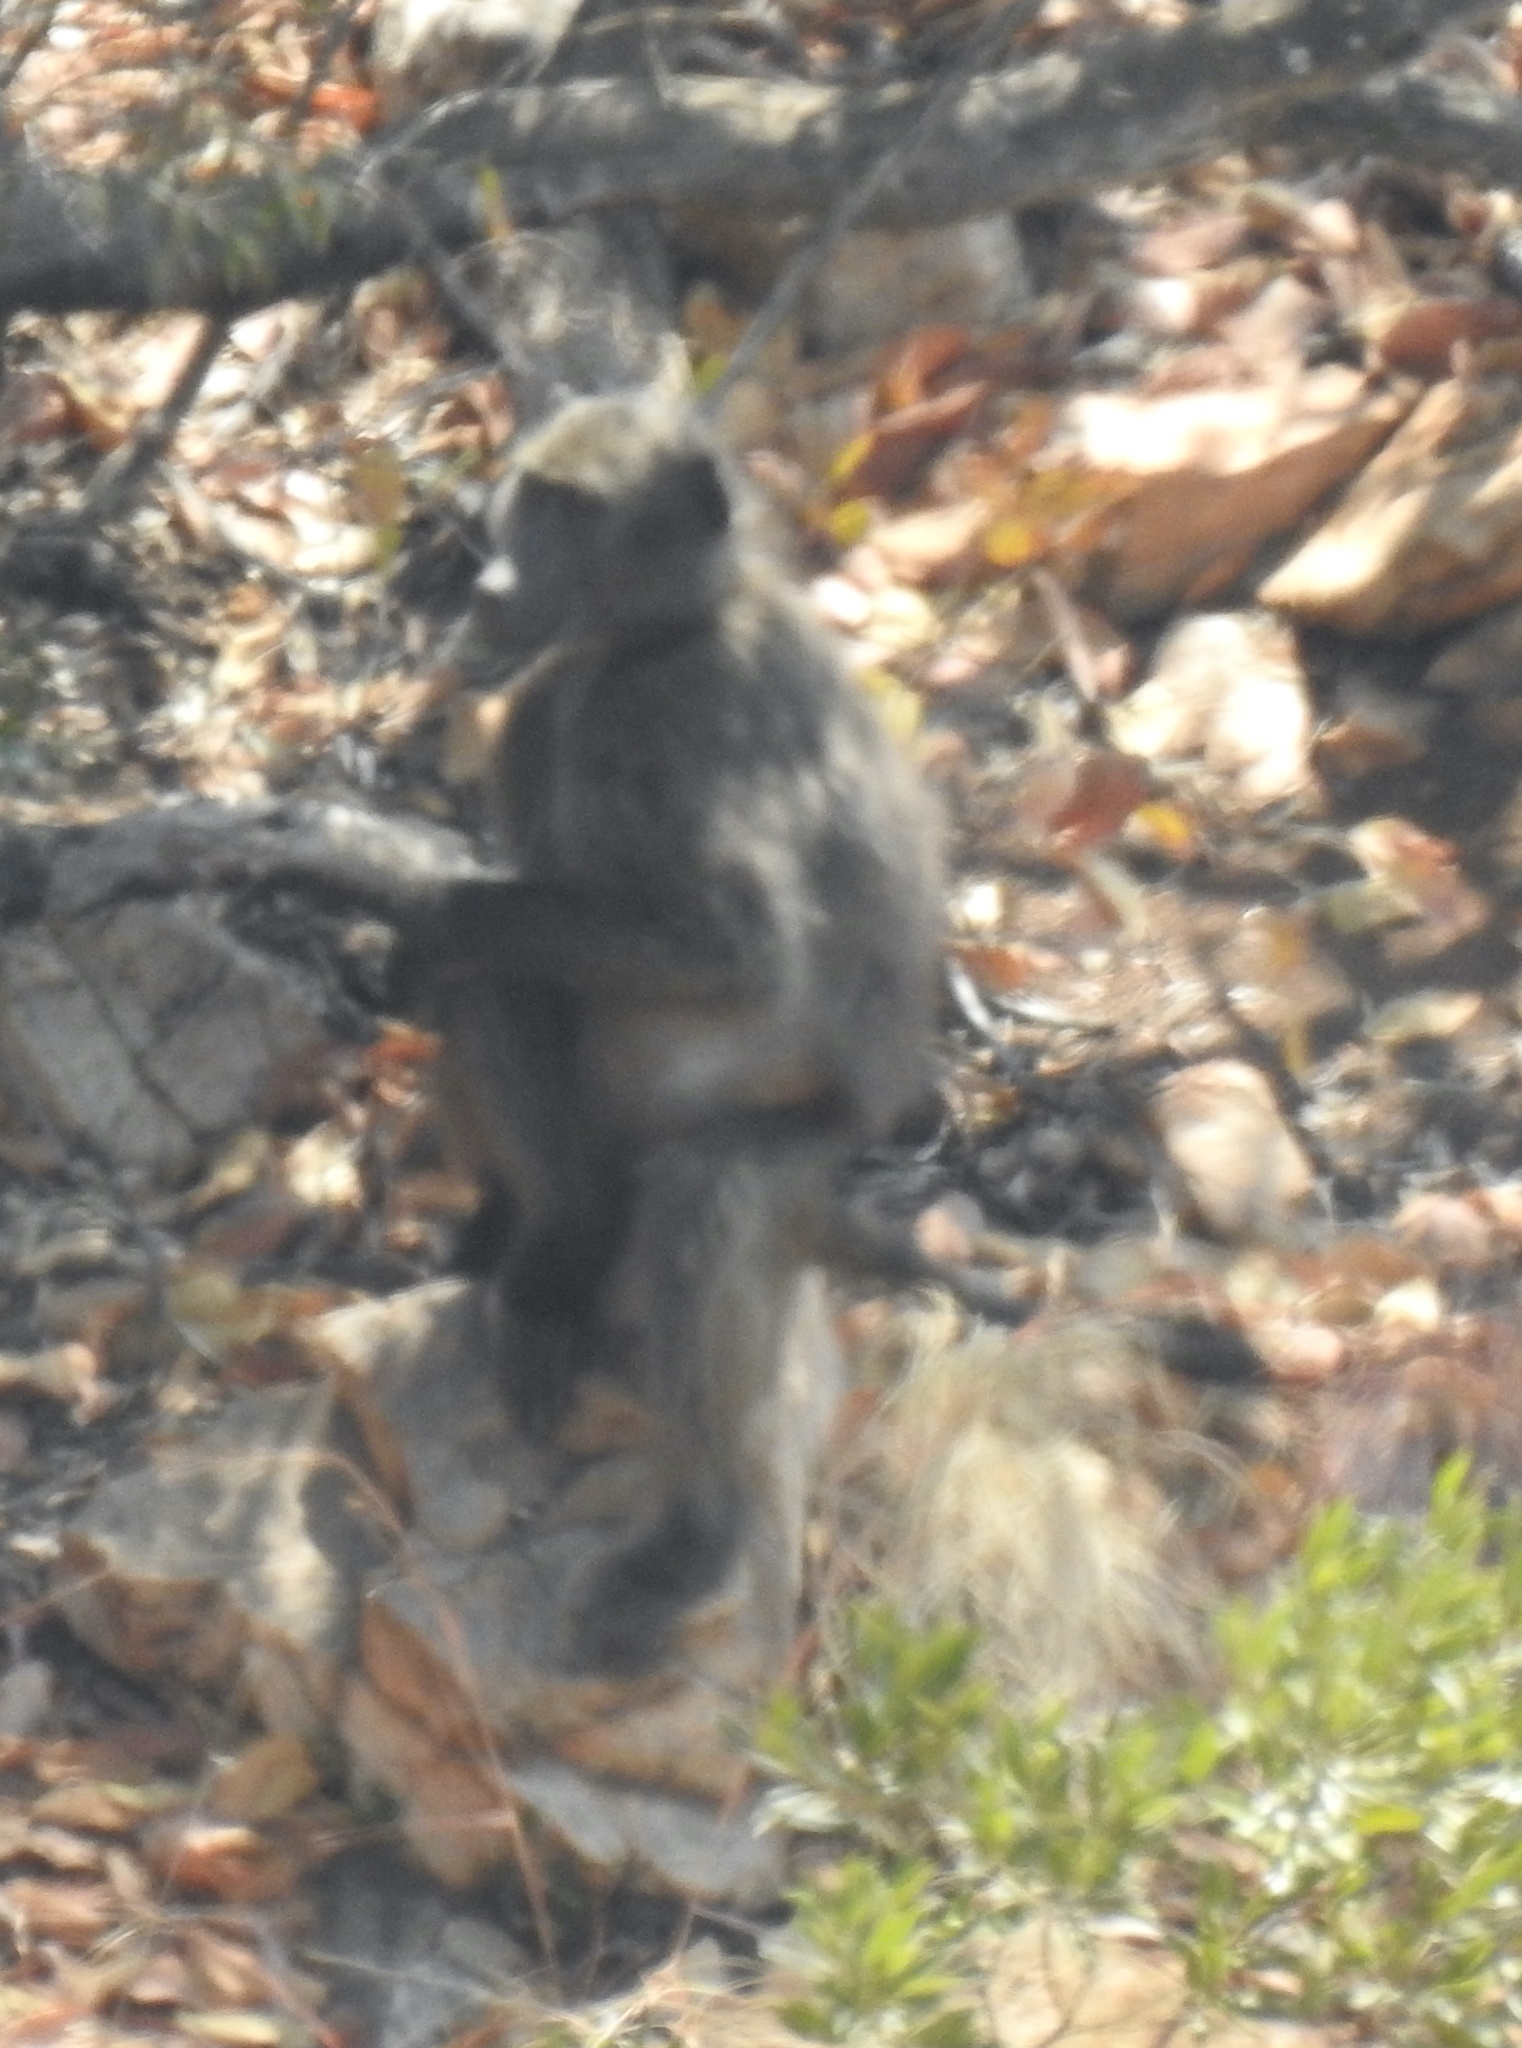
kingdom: Animalia
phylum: Chordata
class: Mammalia
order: Primates
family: Cercopithecidae
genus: Papio
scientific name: Papio ursinus
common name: Chacma baboon
